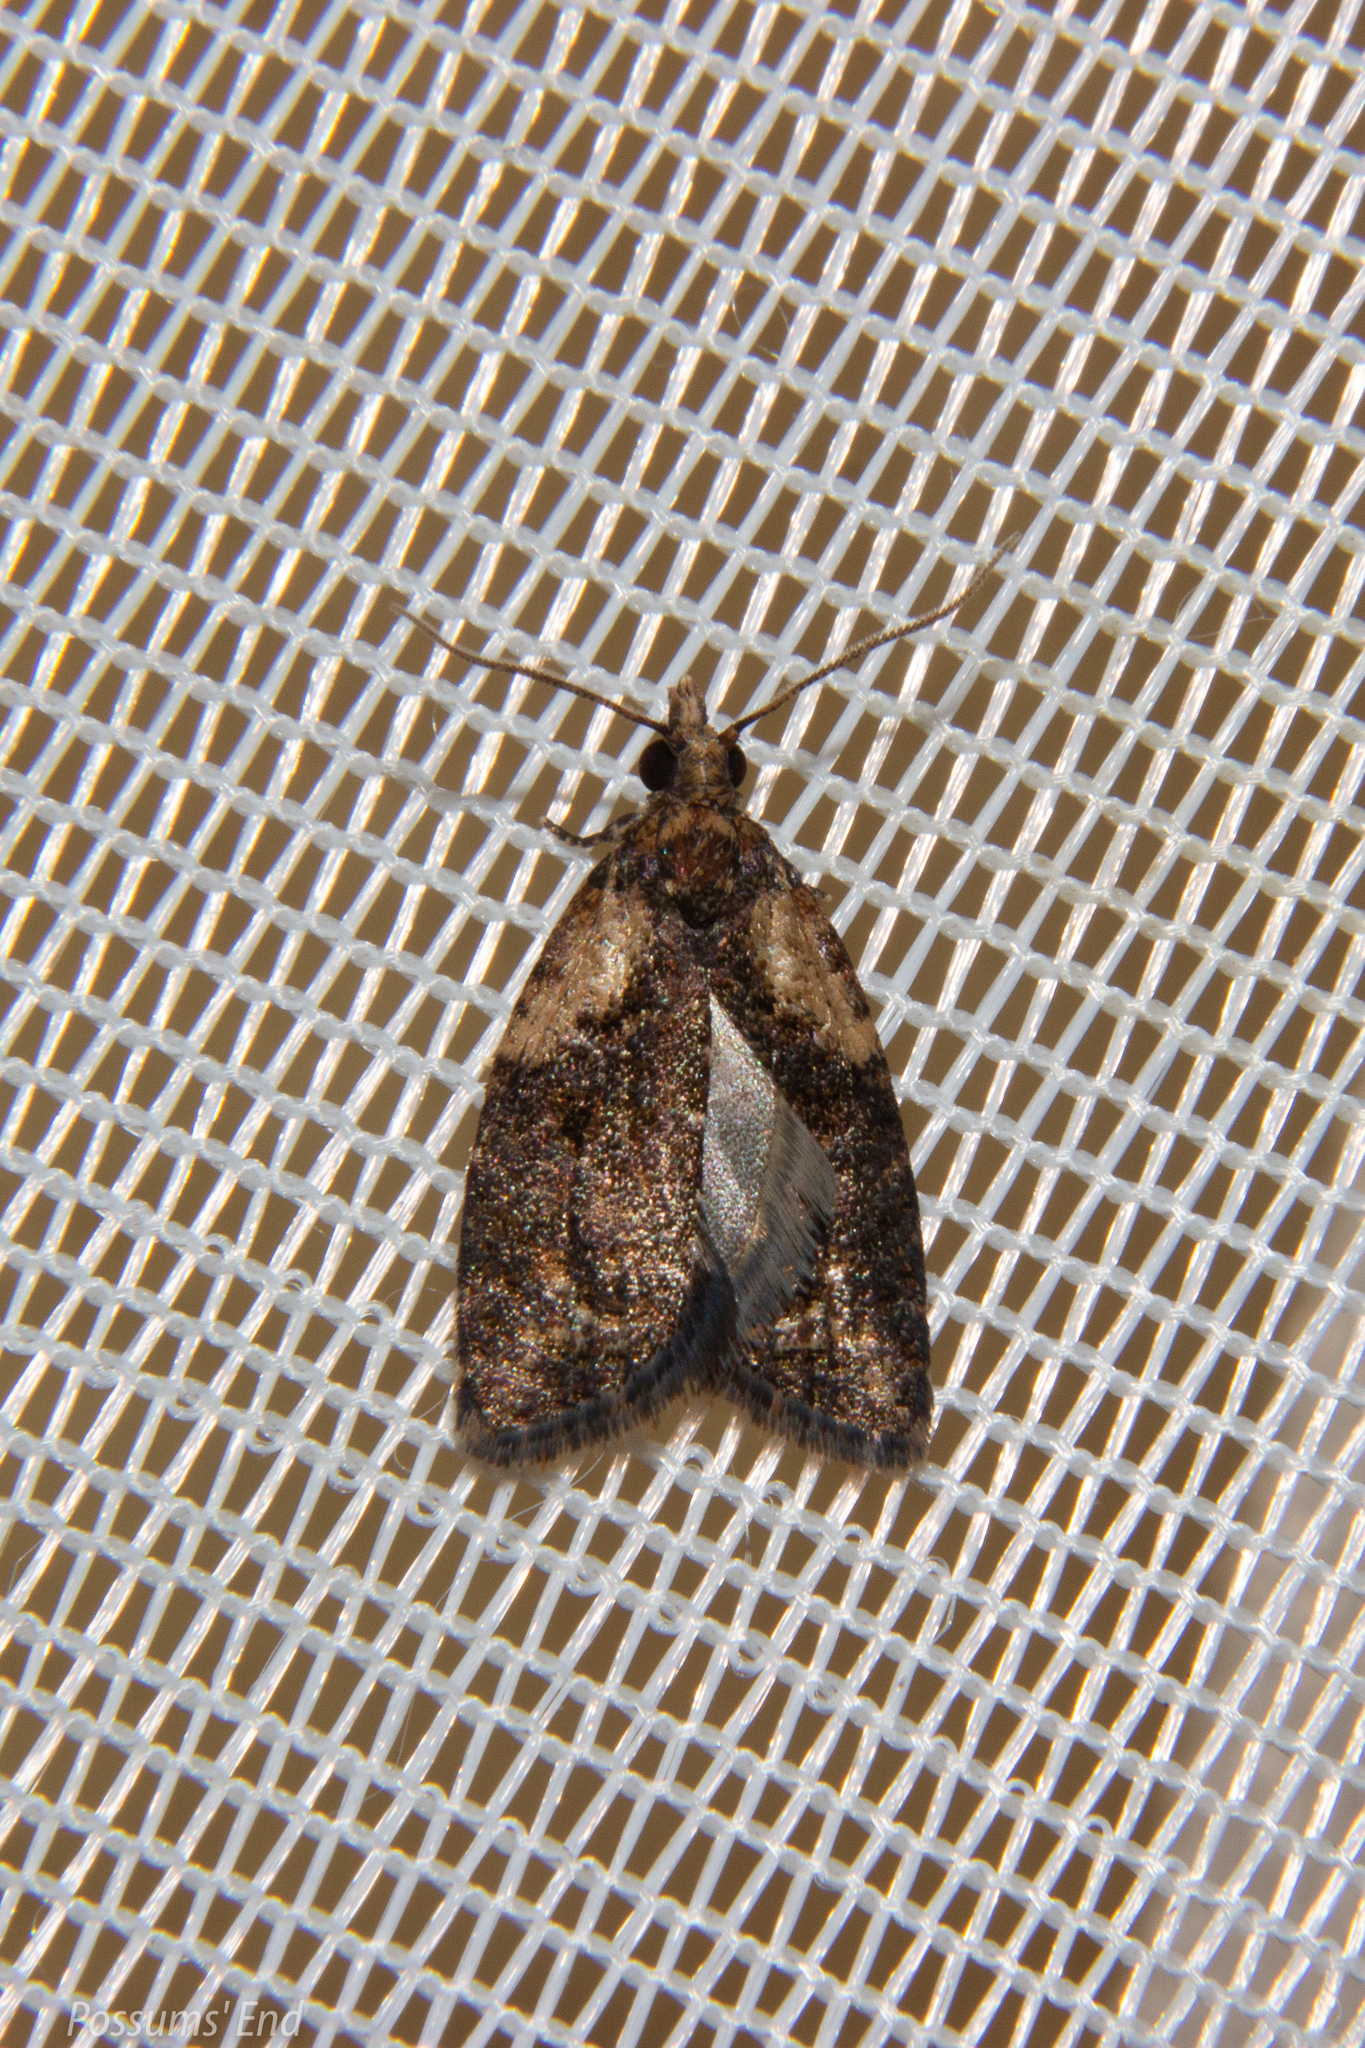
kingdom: Animalia
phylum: Arthropoda
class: Insecta
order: Lepidoptera
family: Tortricidae
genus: Capua
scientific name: Capua intractana
